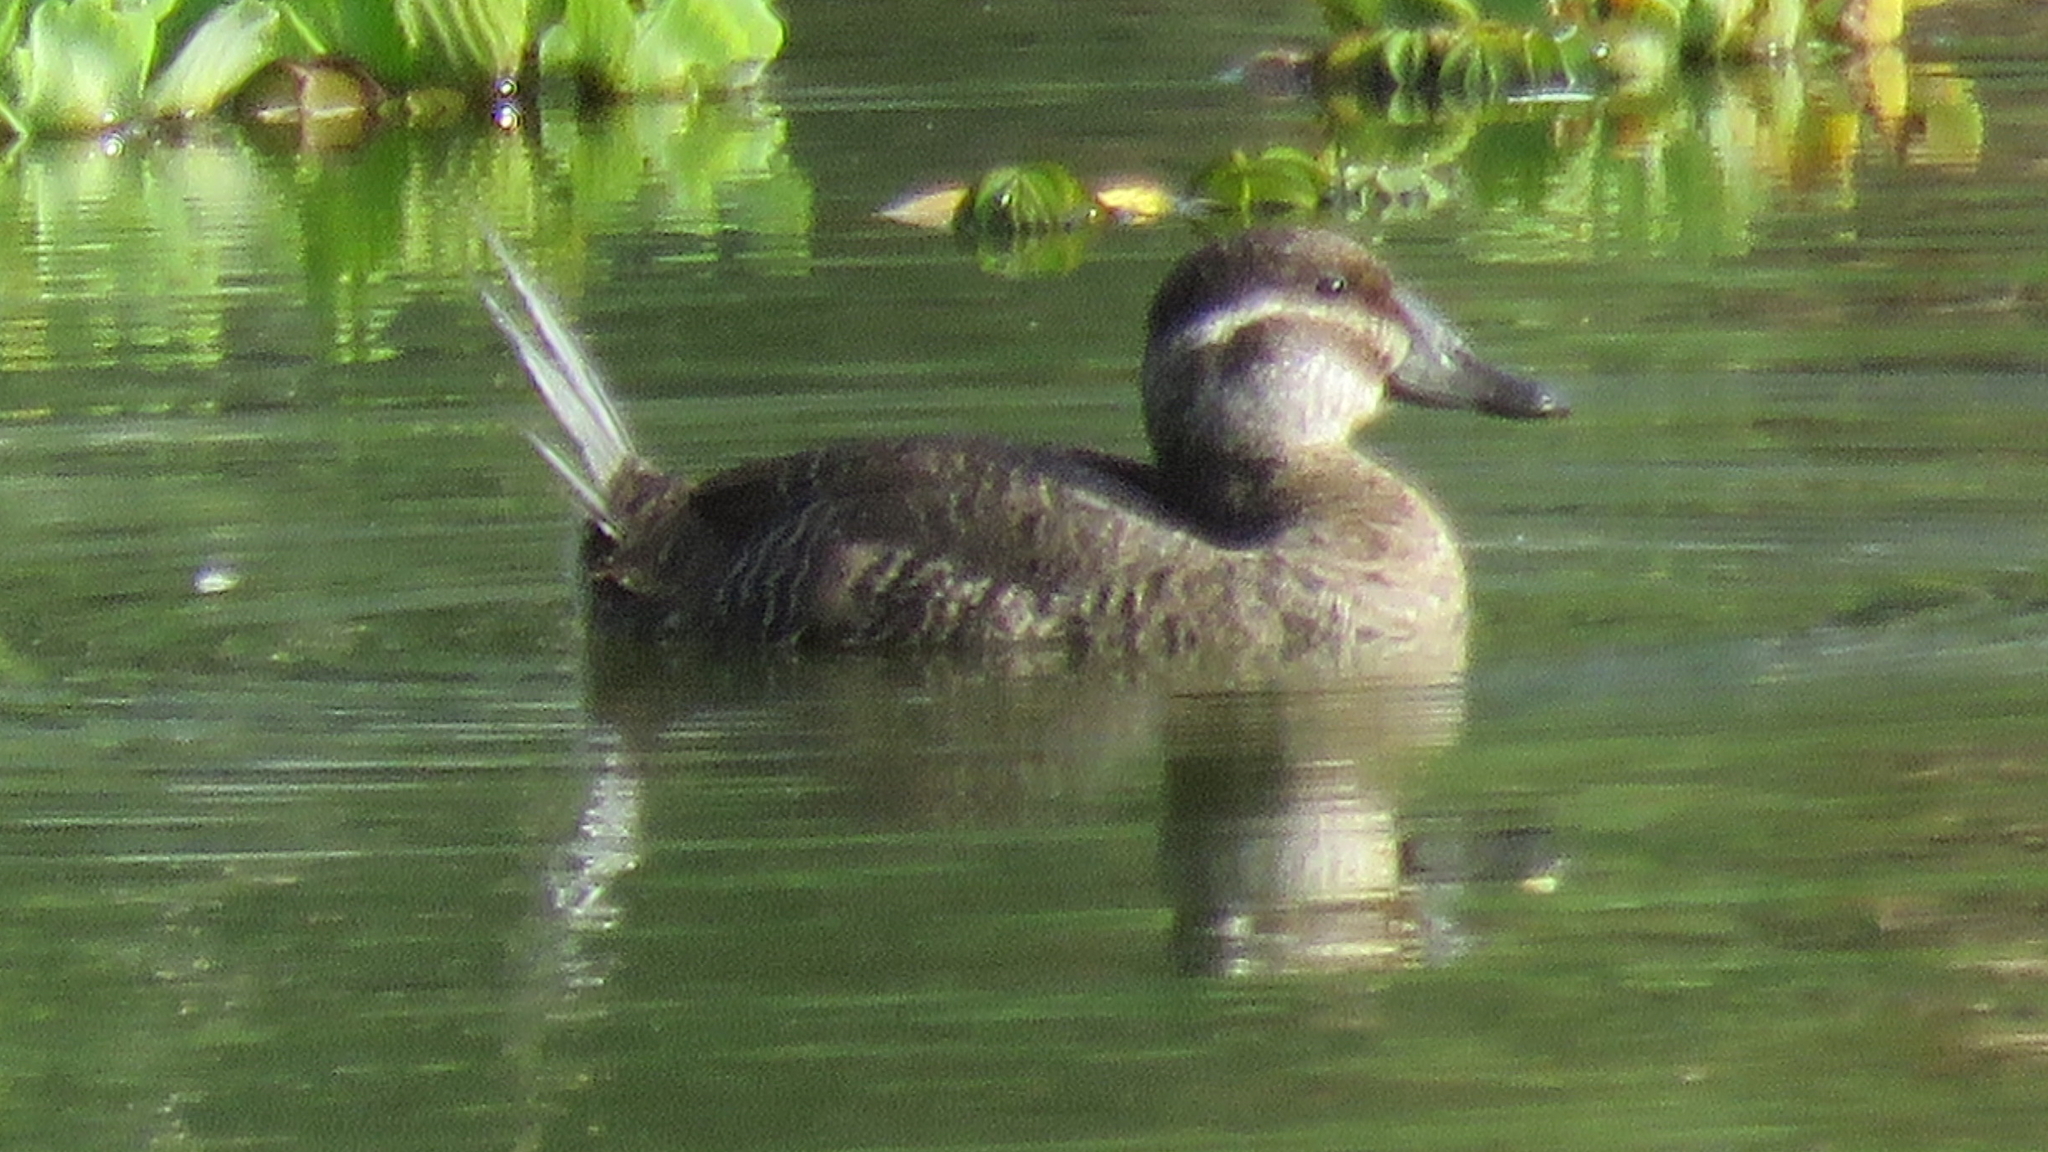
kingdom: Animalia
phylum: Chordata
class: Aves
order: Anseriformes
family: Anatidae
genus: Oxyura
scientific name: Oxyura vittata
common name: Lake duck
